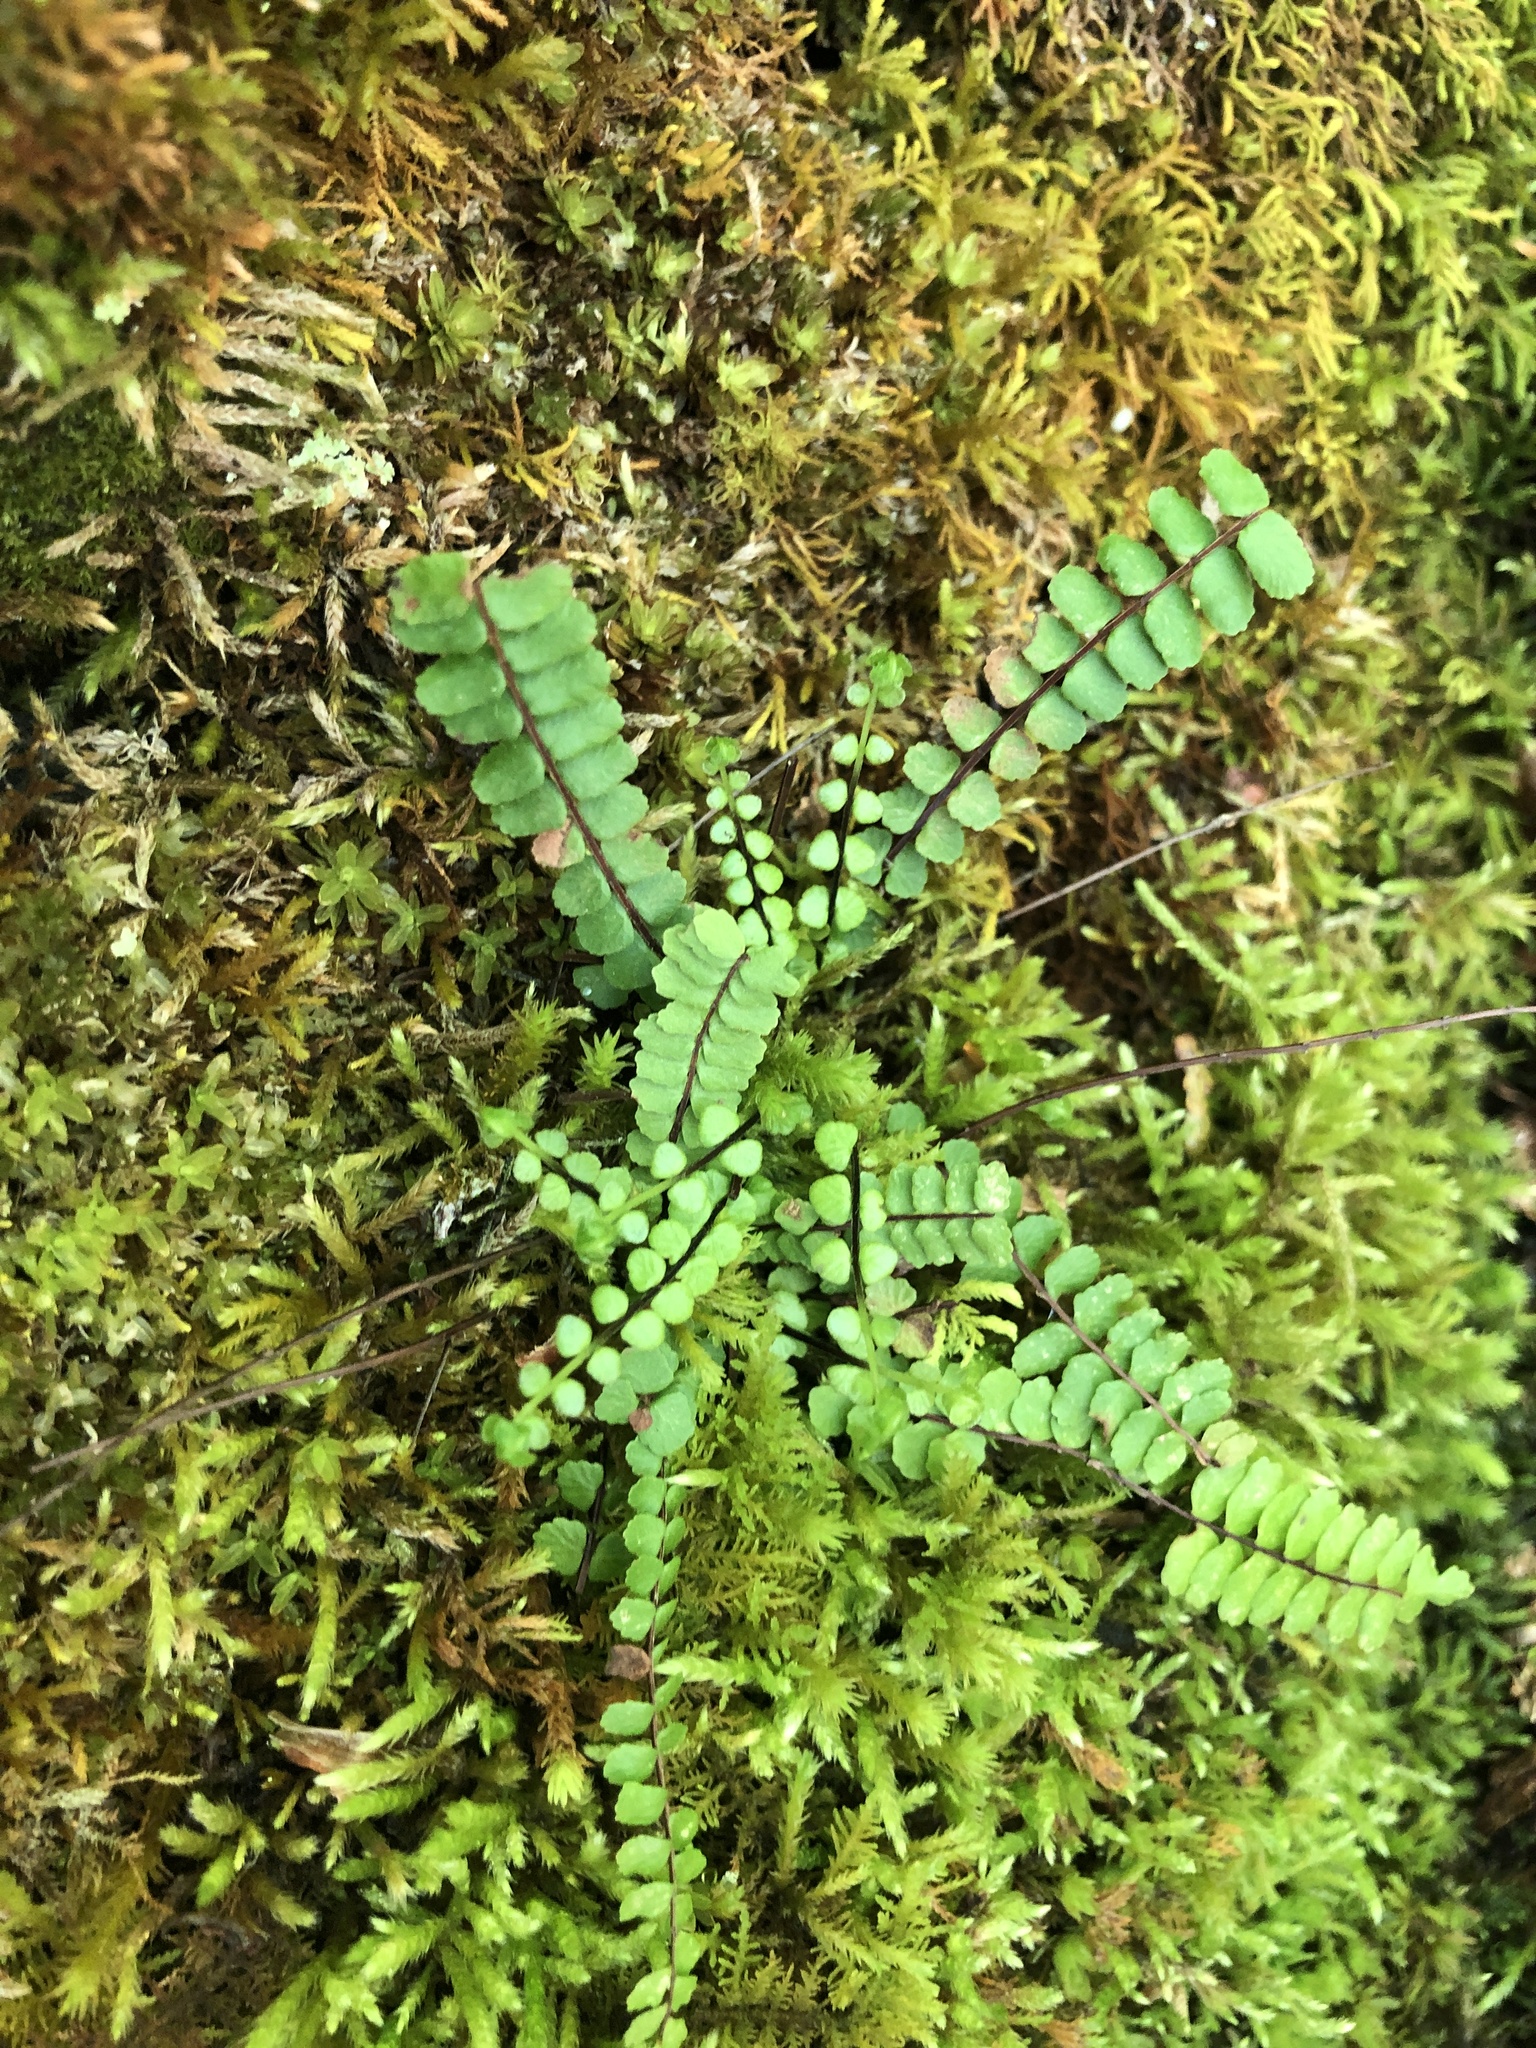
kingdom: Plantae
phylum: Tracheophyta
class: Polypodiopsida
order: Polypodiales
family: Aspleniaceae
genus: Asplenium
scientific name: Asplenium trichomanes
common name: Maidenhair spleenwort
